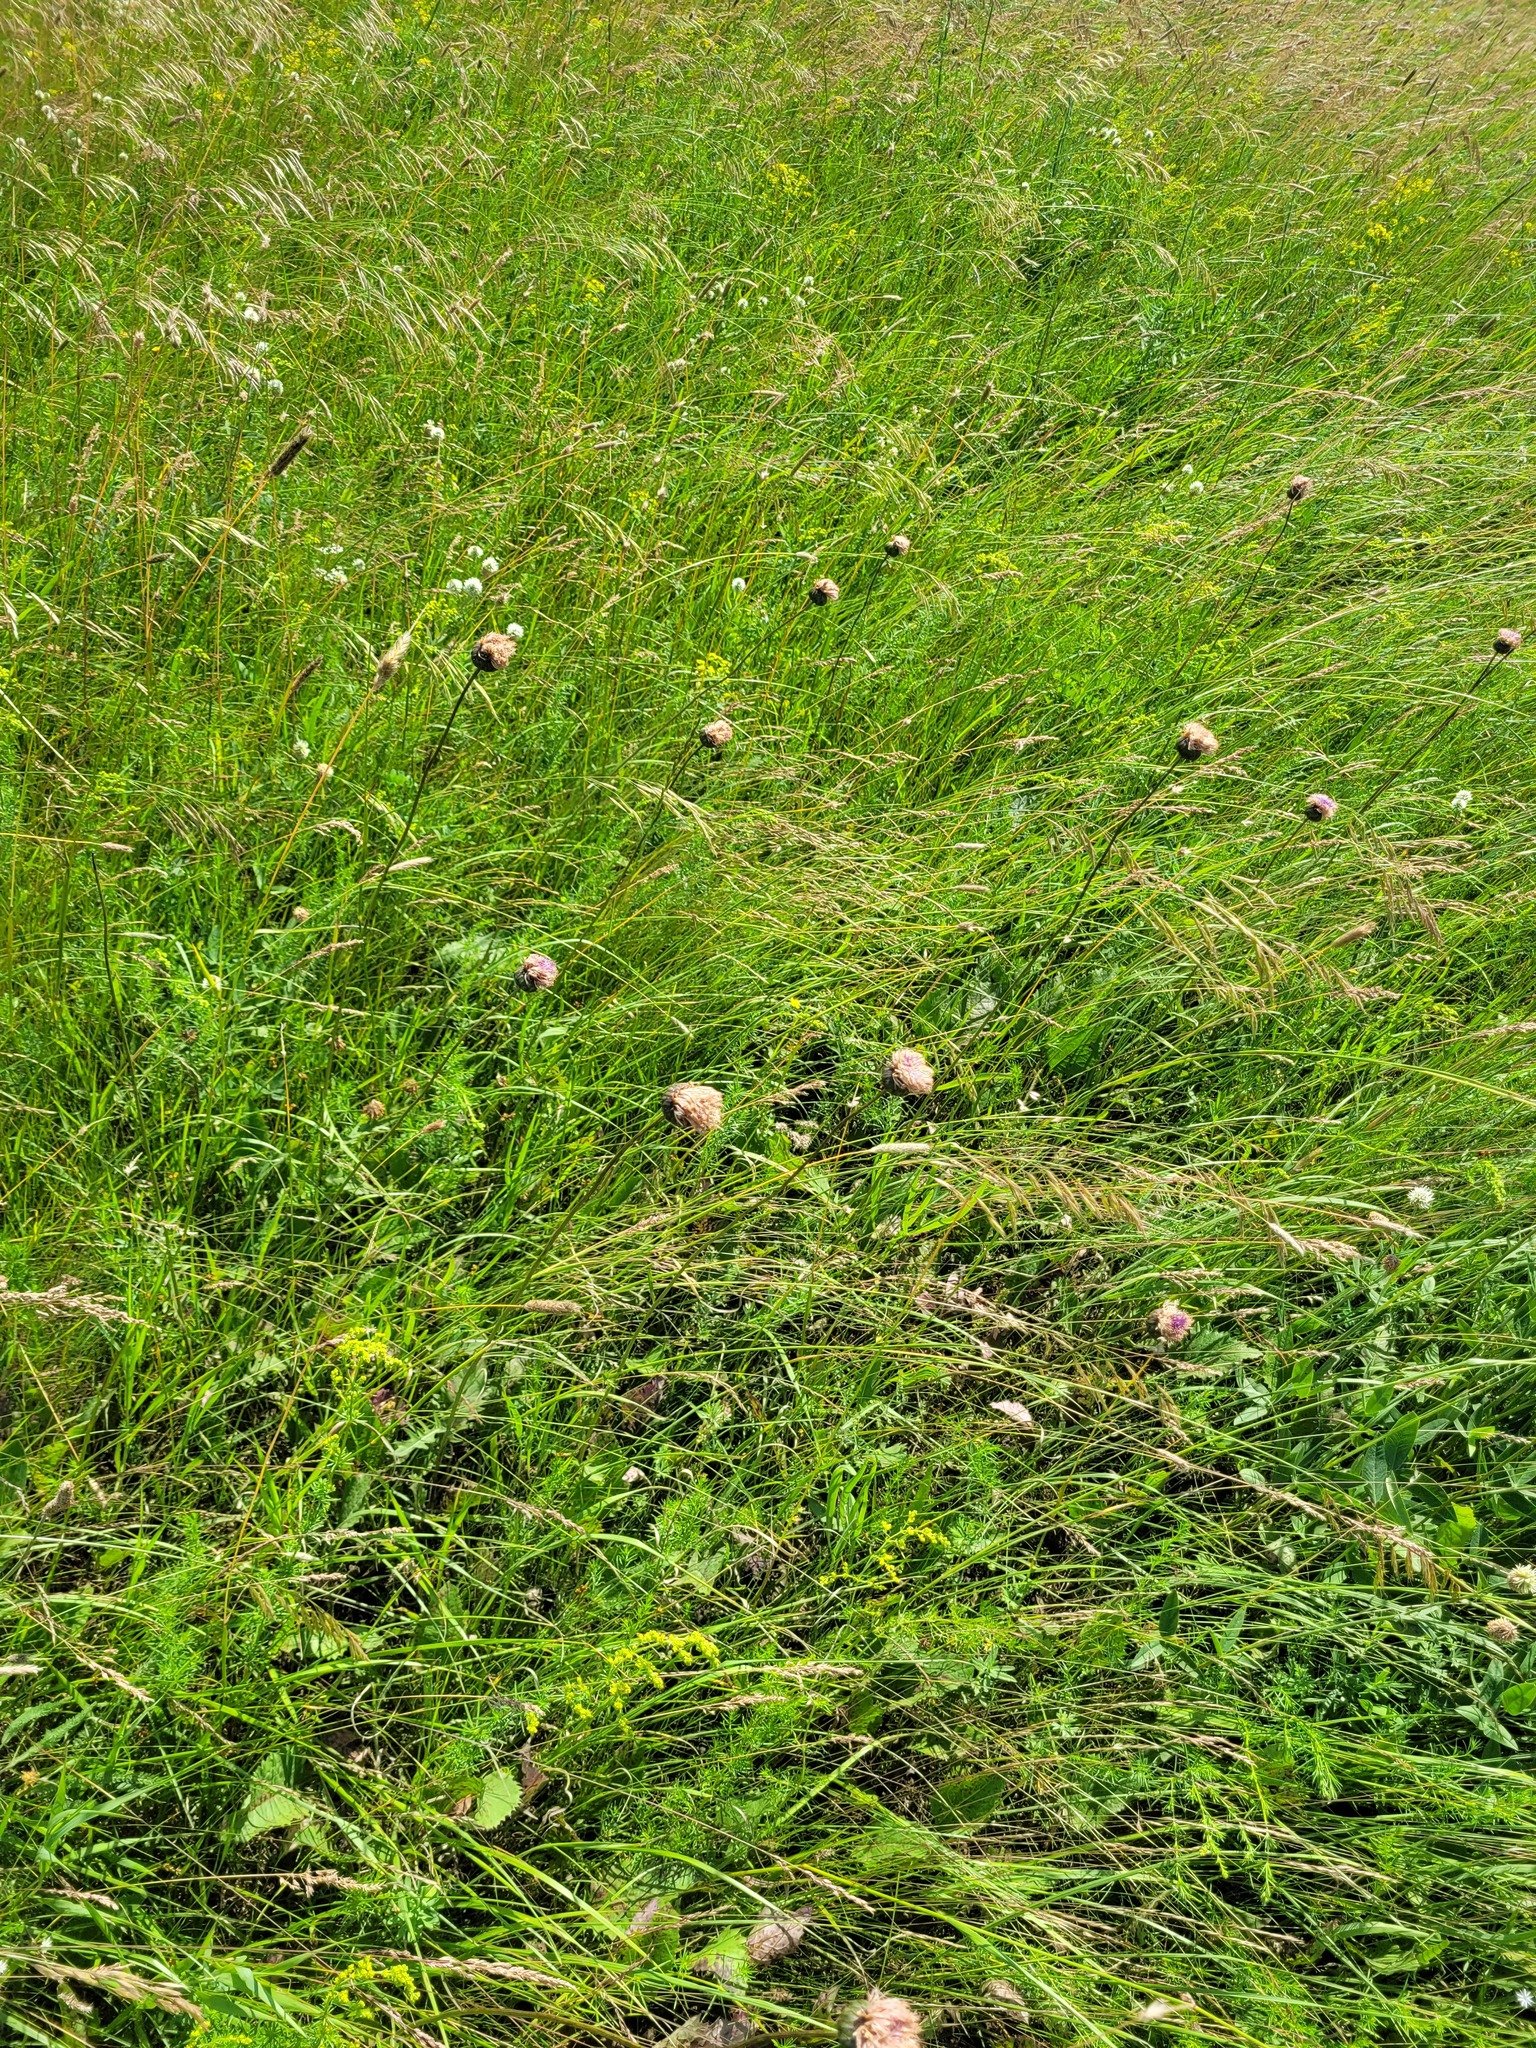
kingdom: Plantae
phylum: Tracheophyta
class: Magnoliopsida
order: Asterales
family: Asteraceae
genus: Klasea
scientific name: Klasea lycopifolia
